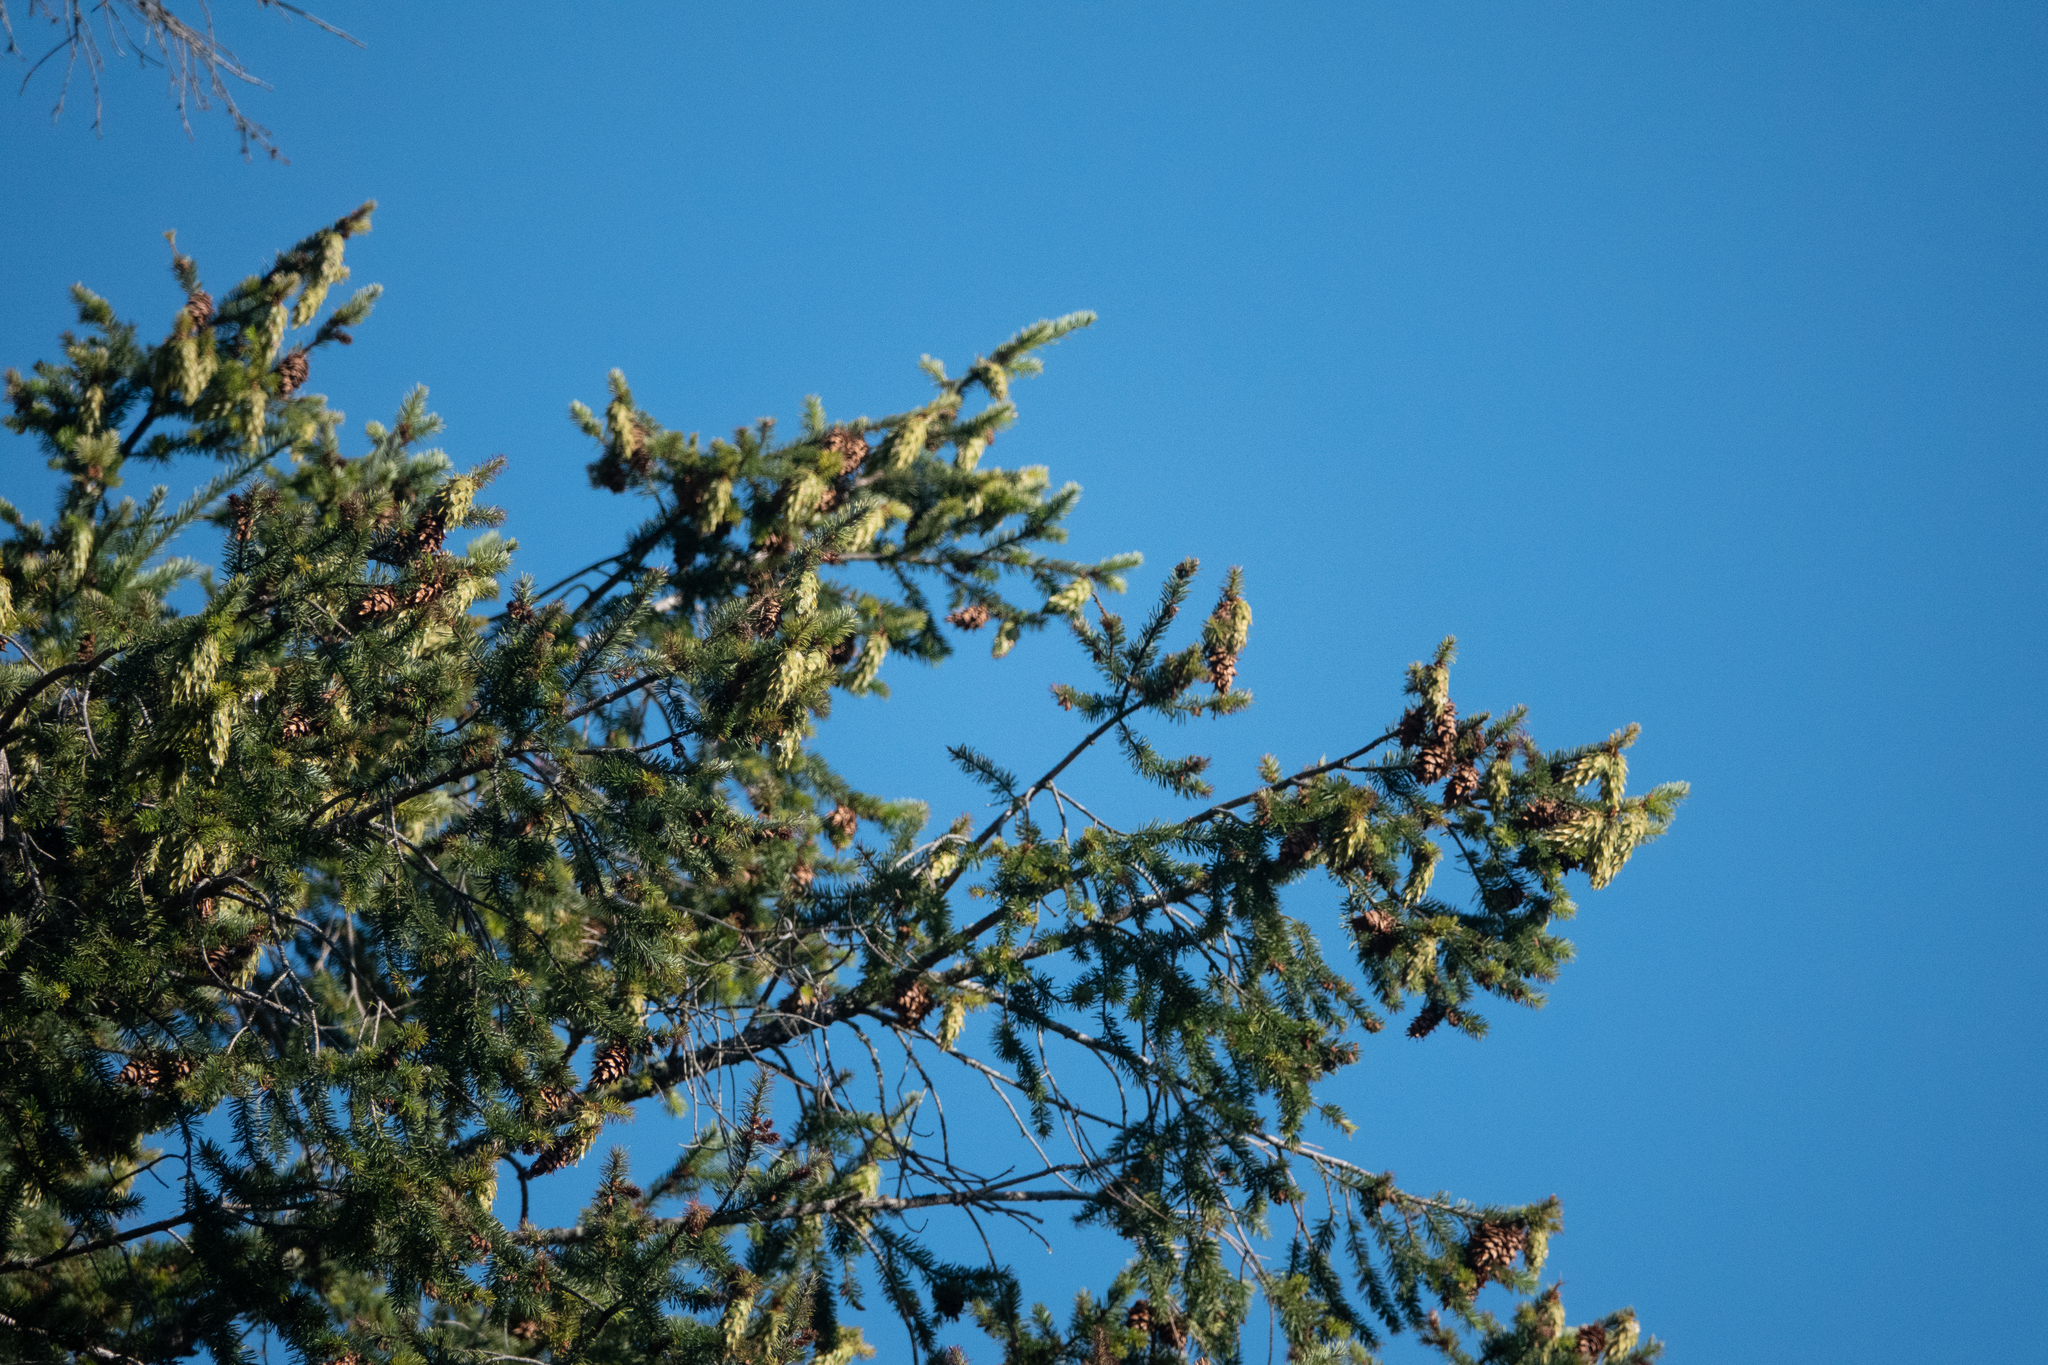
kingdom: Plantae
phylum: Tracheophyta
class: Pinopsida
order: Pinales
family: Pinaceae
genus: Pseudotsuga
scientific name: Pseudotsuga menziesii
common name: Douglas fir
